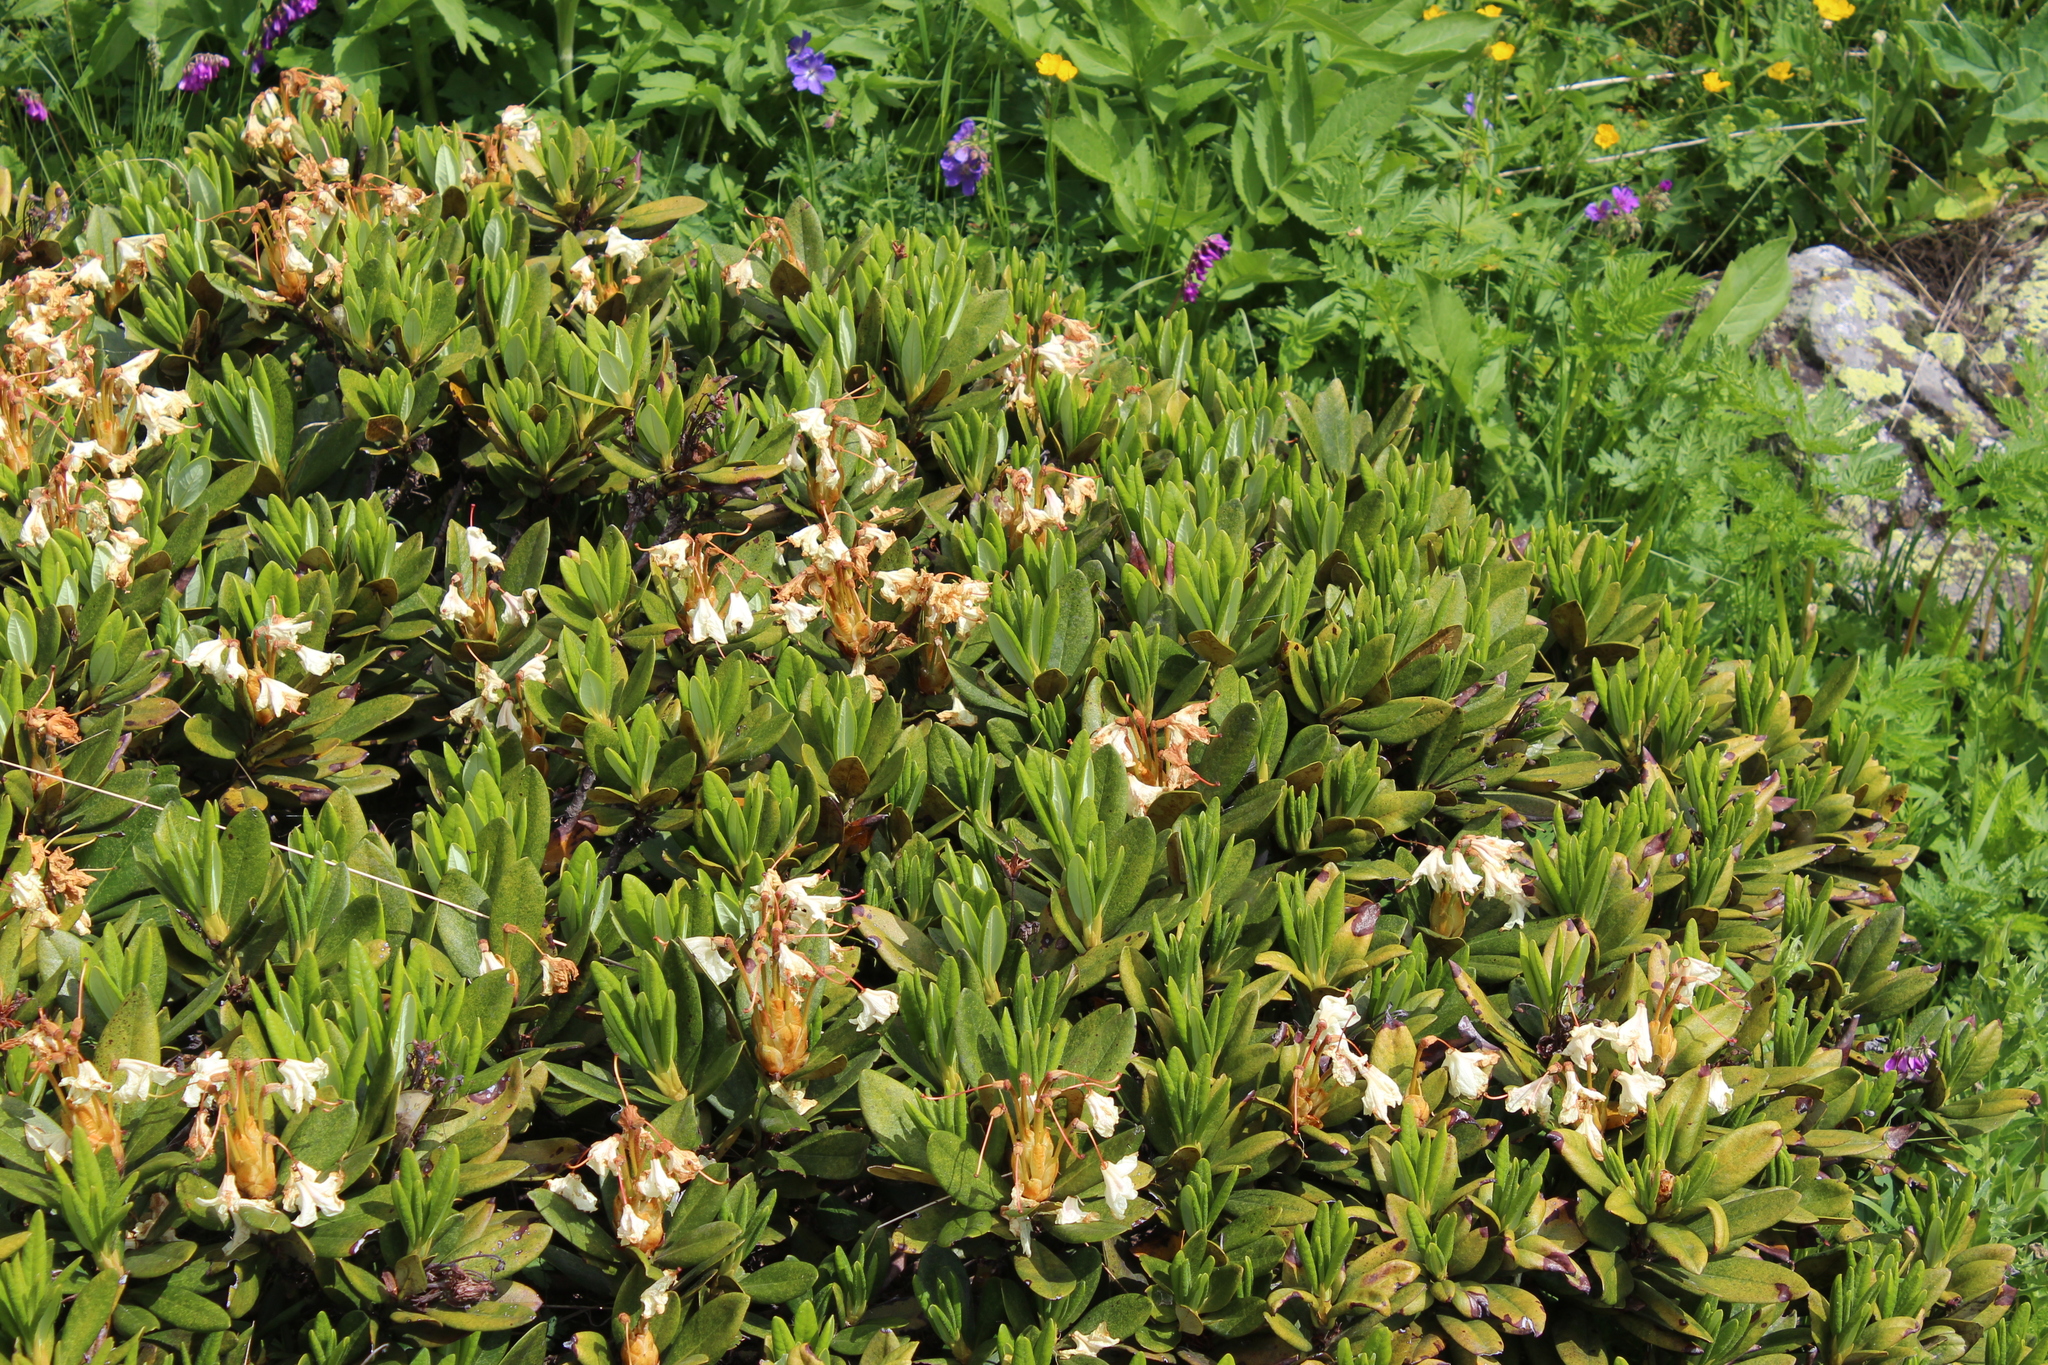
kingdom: Plantae
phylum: Tracheophyta
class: Magnoliopsida
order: Ericales
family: Ericaceae
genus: Rhododendron
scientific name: Rhododendron caucasicum
